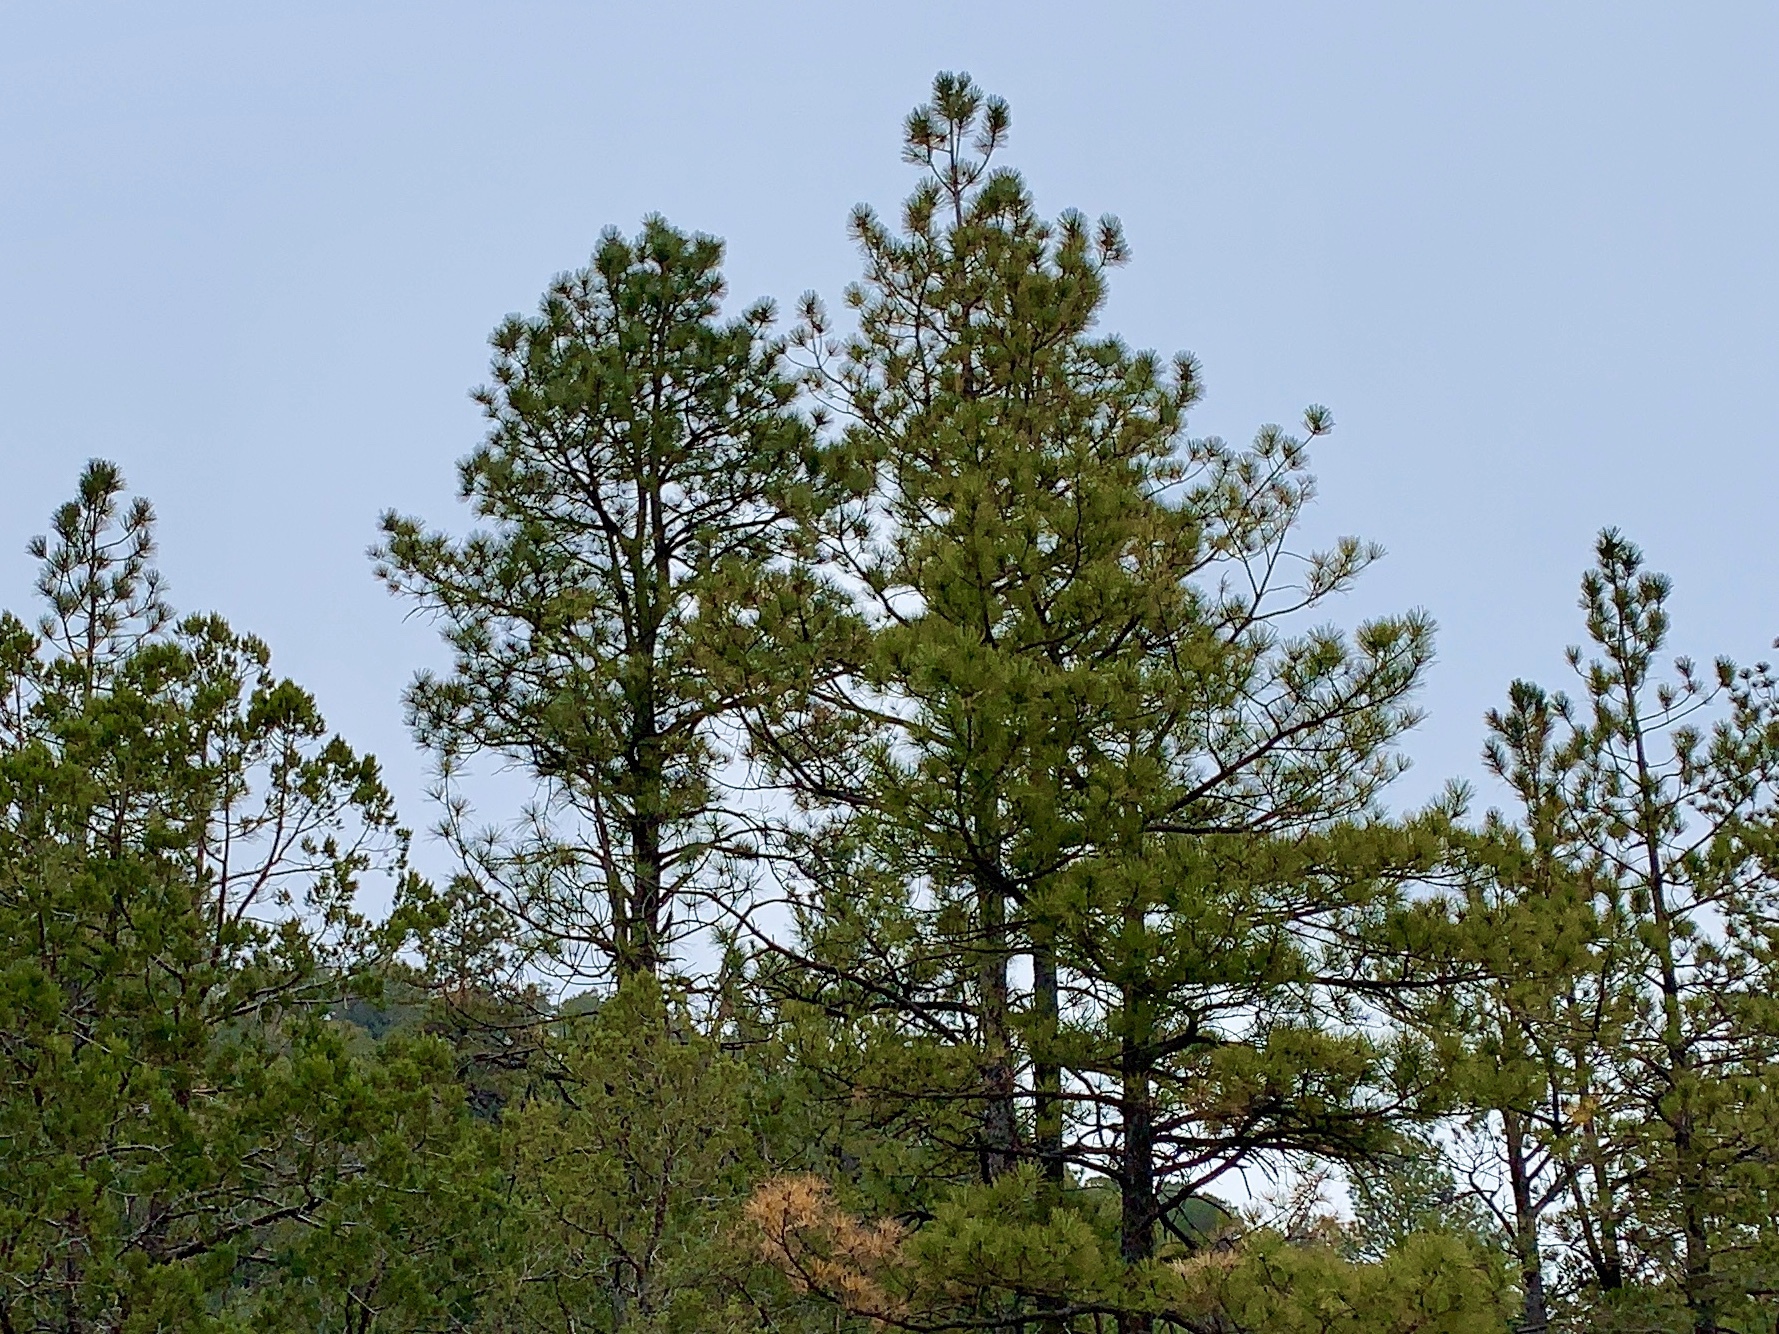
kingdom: Plantae
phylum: Tracheophyta
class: Pinopsida
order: Pinales
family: Pinaceae
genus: Pinus
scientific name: Pinus ponderosa
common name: Western yellow-pine
